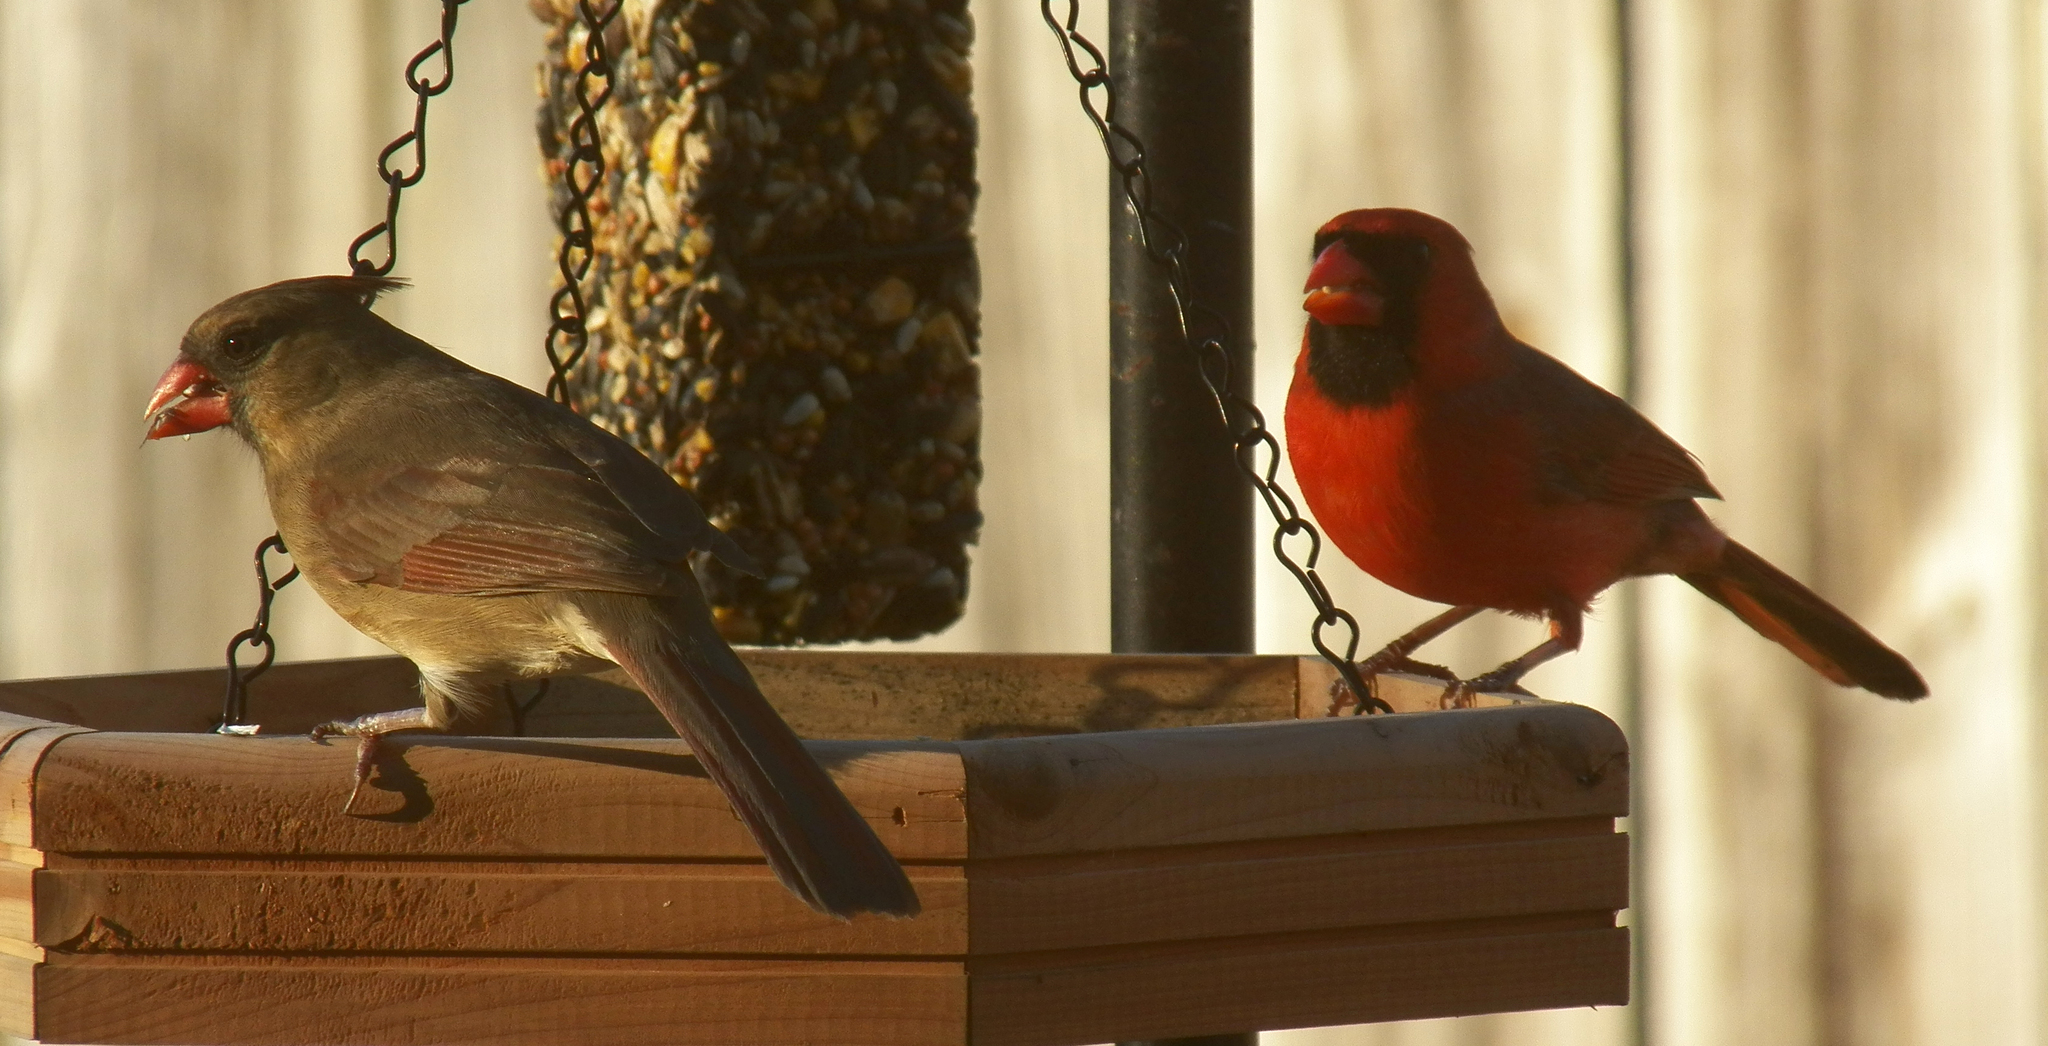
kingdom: Animalia
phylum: Chordata
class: Aves
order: Passeriformes
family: Cardinalidae
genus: Cardinalis
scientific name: Cardinalis cardinalis
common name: Northern cardinal
